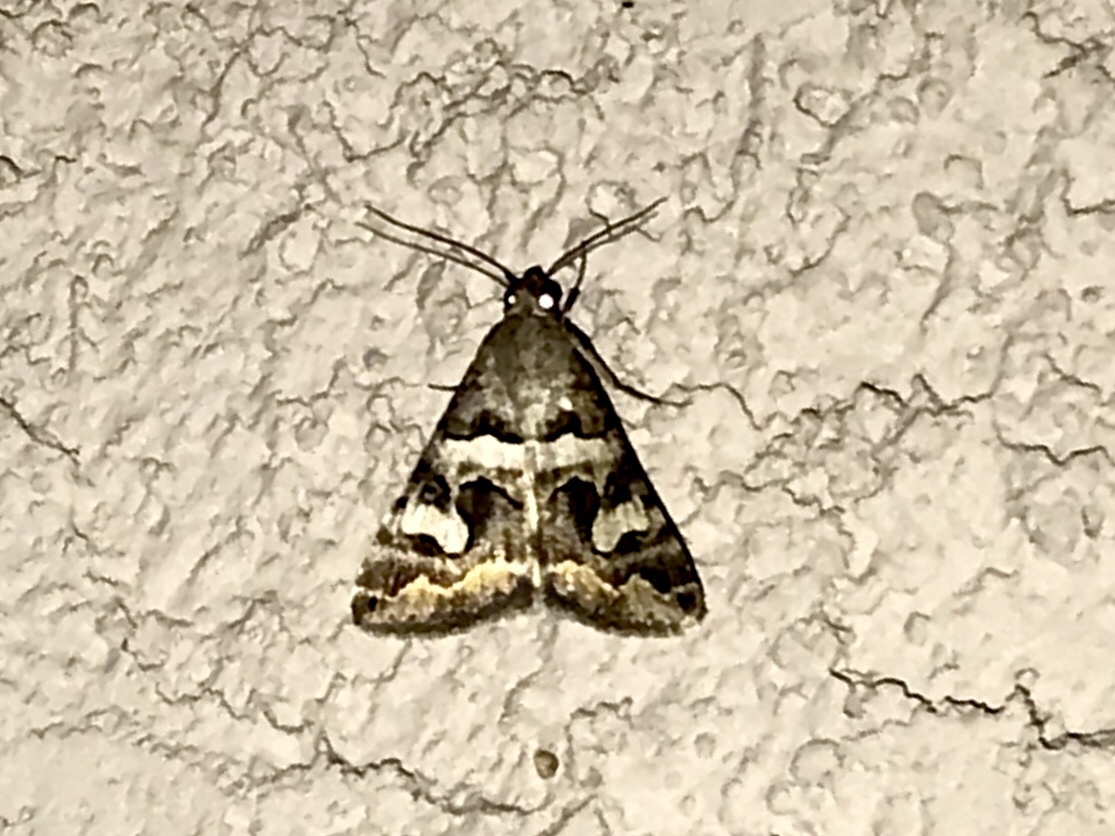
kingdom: Animalia
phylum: Arthropoda
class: Insecta
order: Lepidoptera
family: Erebidae
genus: Bulia
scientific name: Bulia deducta
